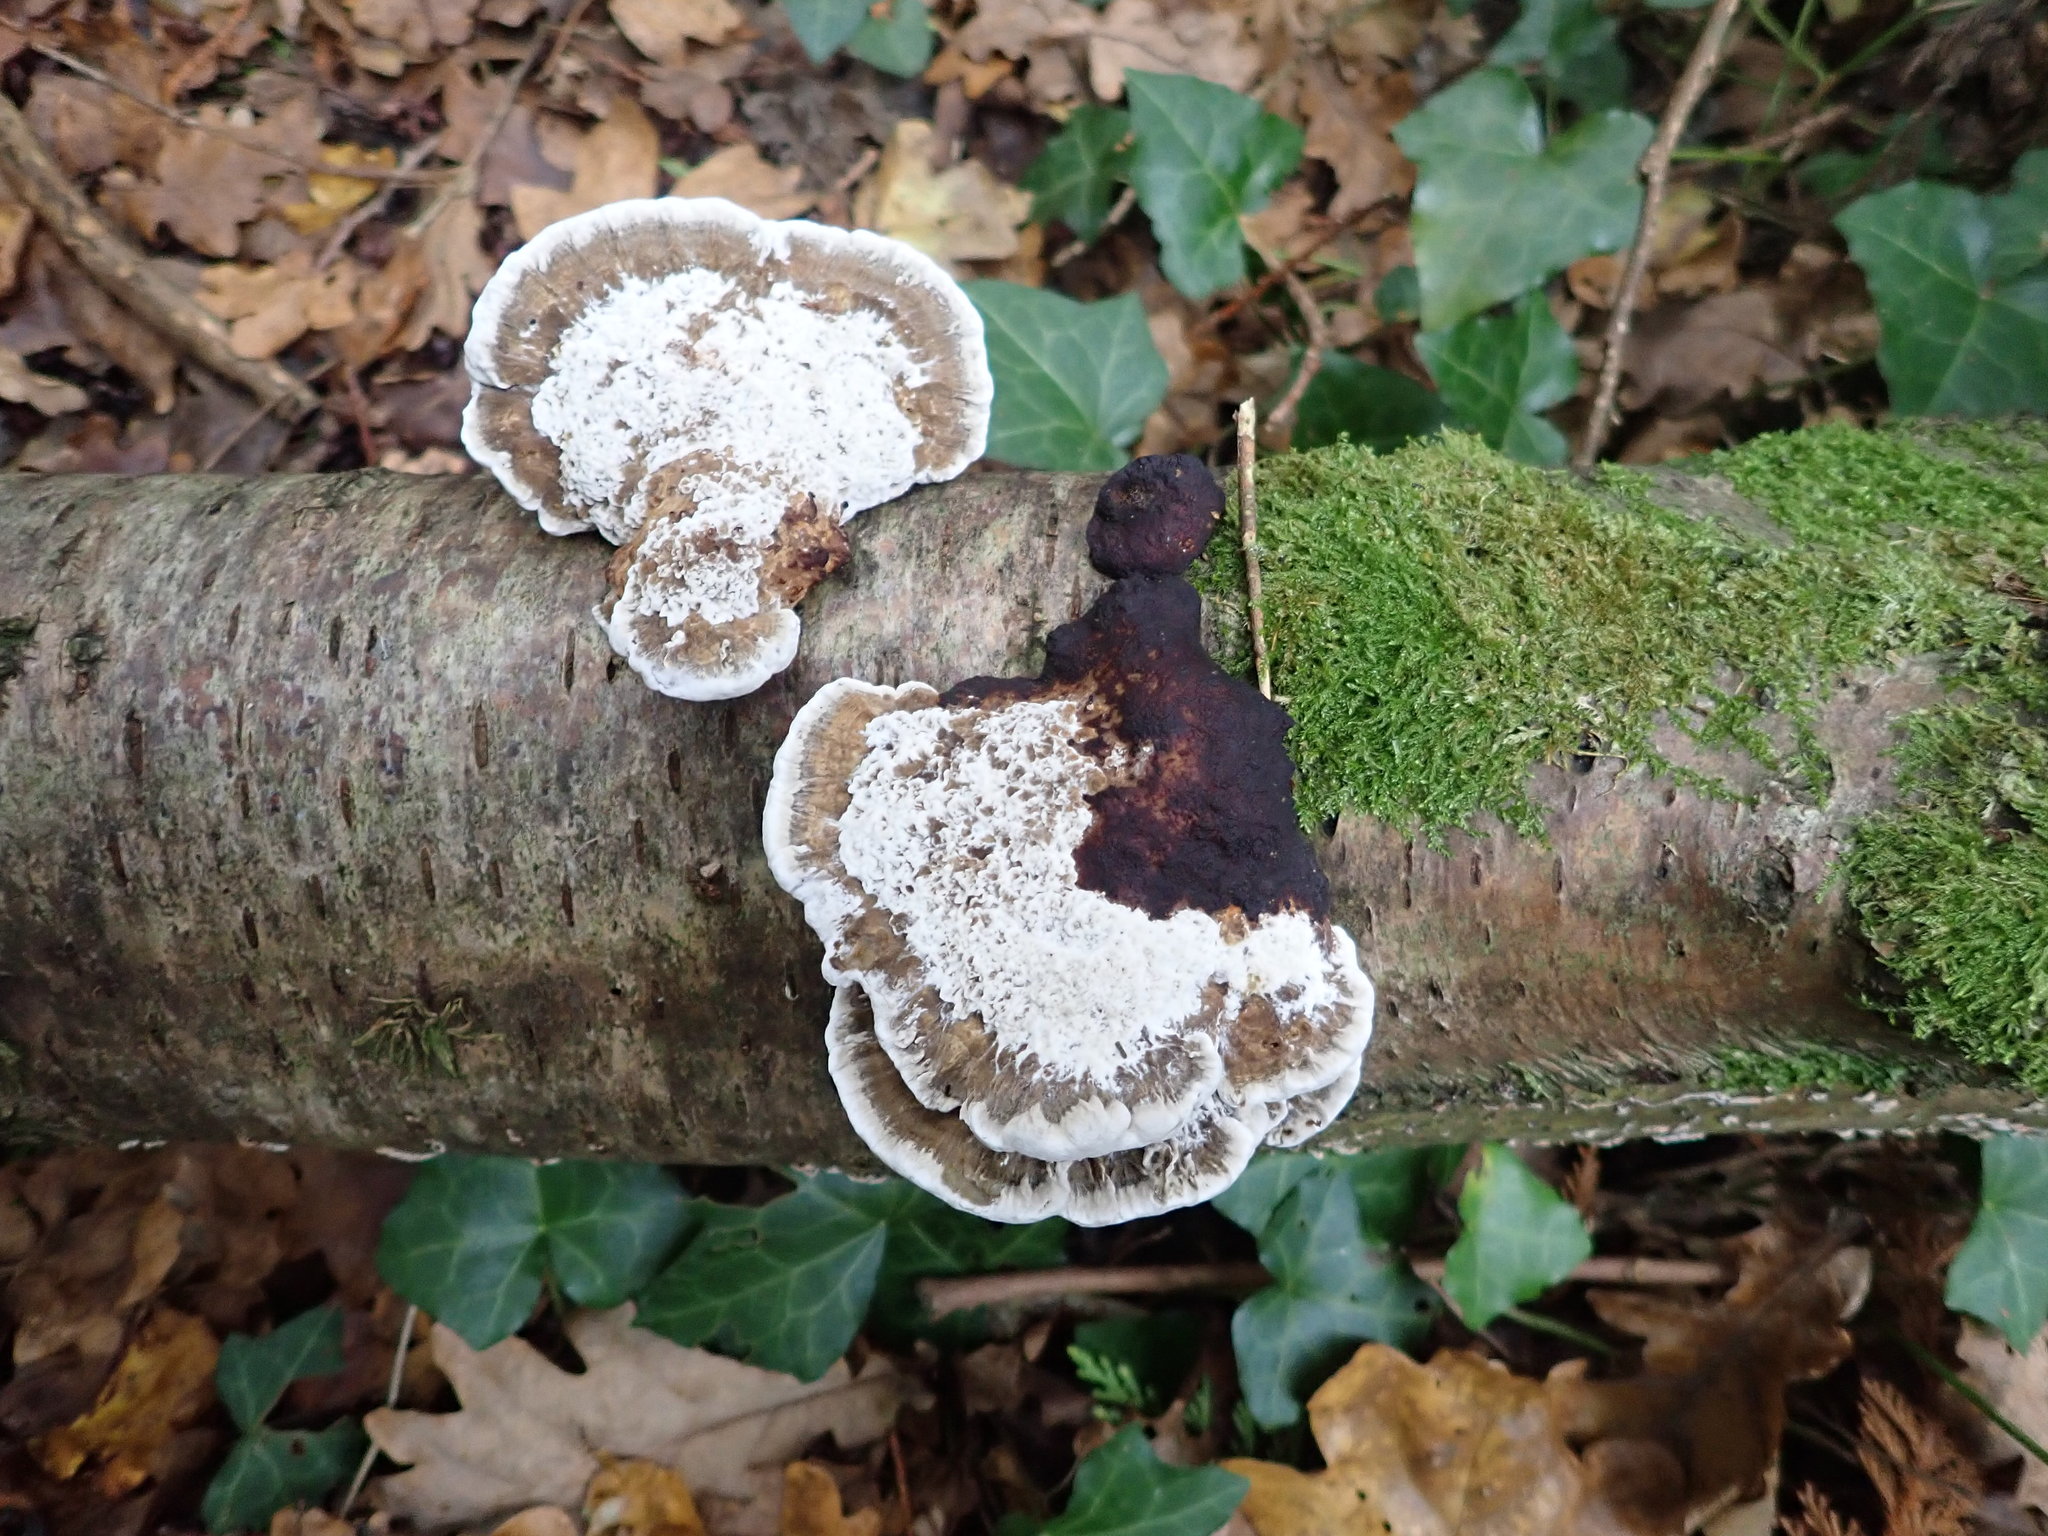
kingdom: Fungi
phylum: Basidiomycota
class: Agaricomycetes
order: Polyporales
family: Polyporaceae
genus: Daedaleopsis
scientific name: Daedaleopsis confragosa
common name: Blushing bracket
